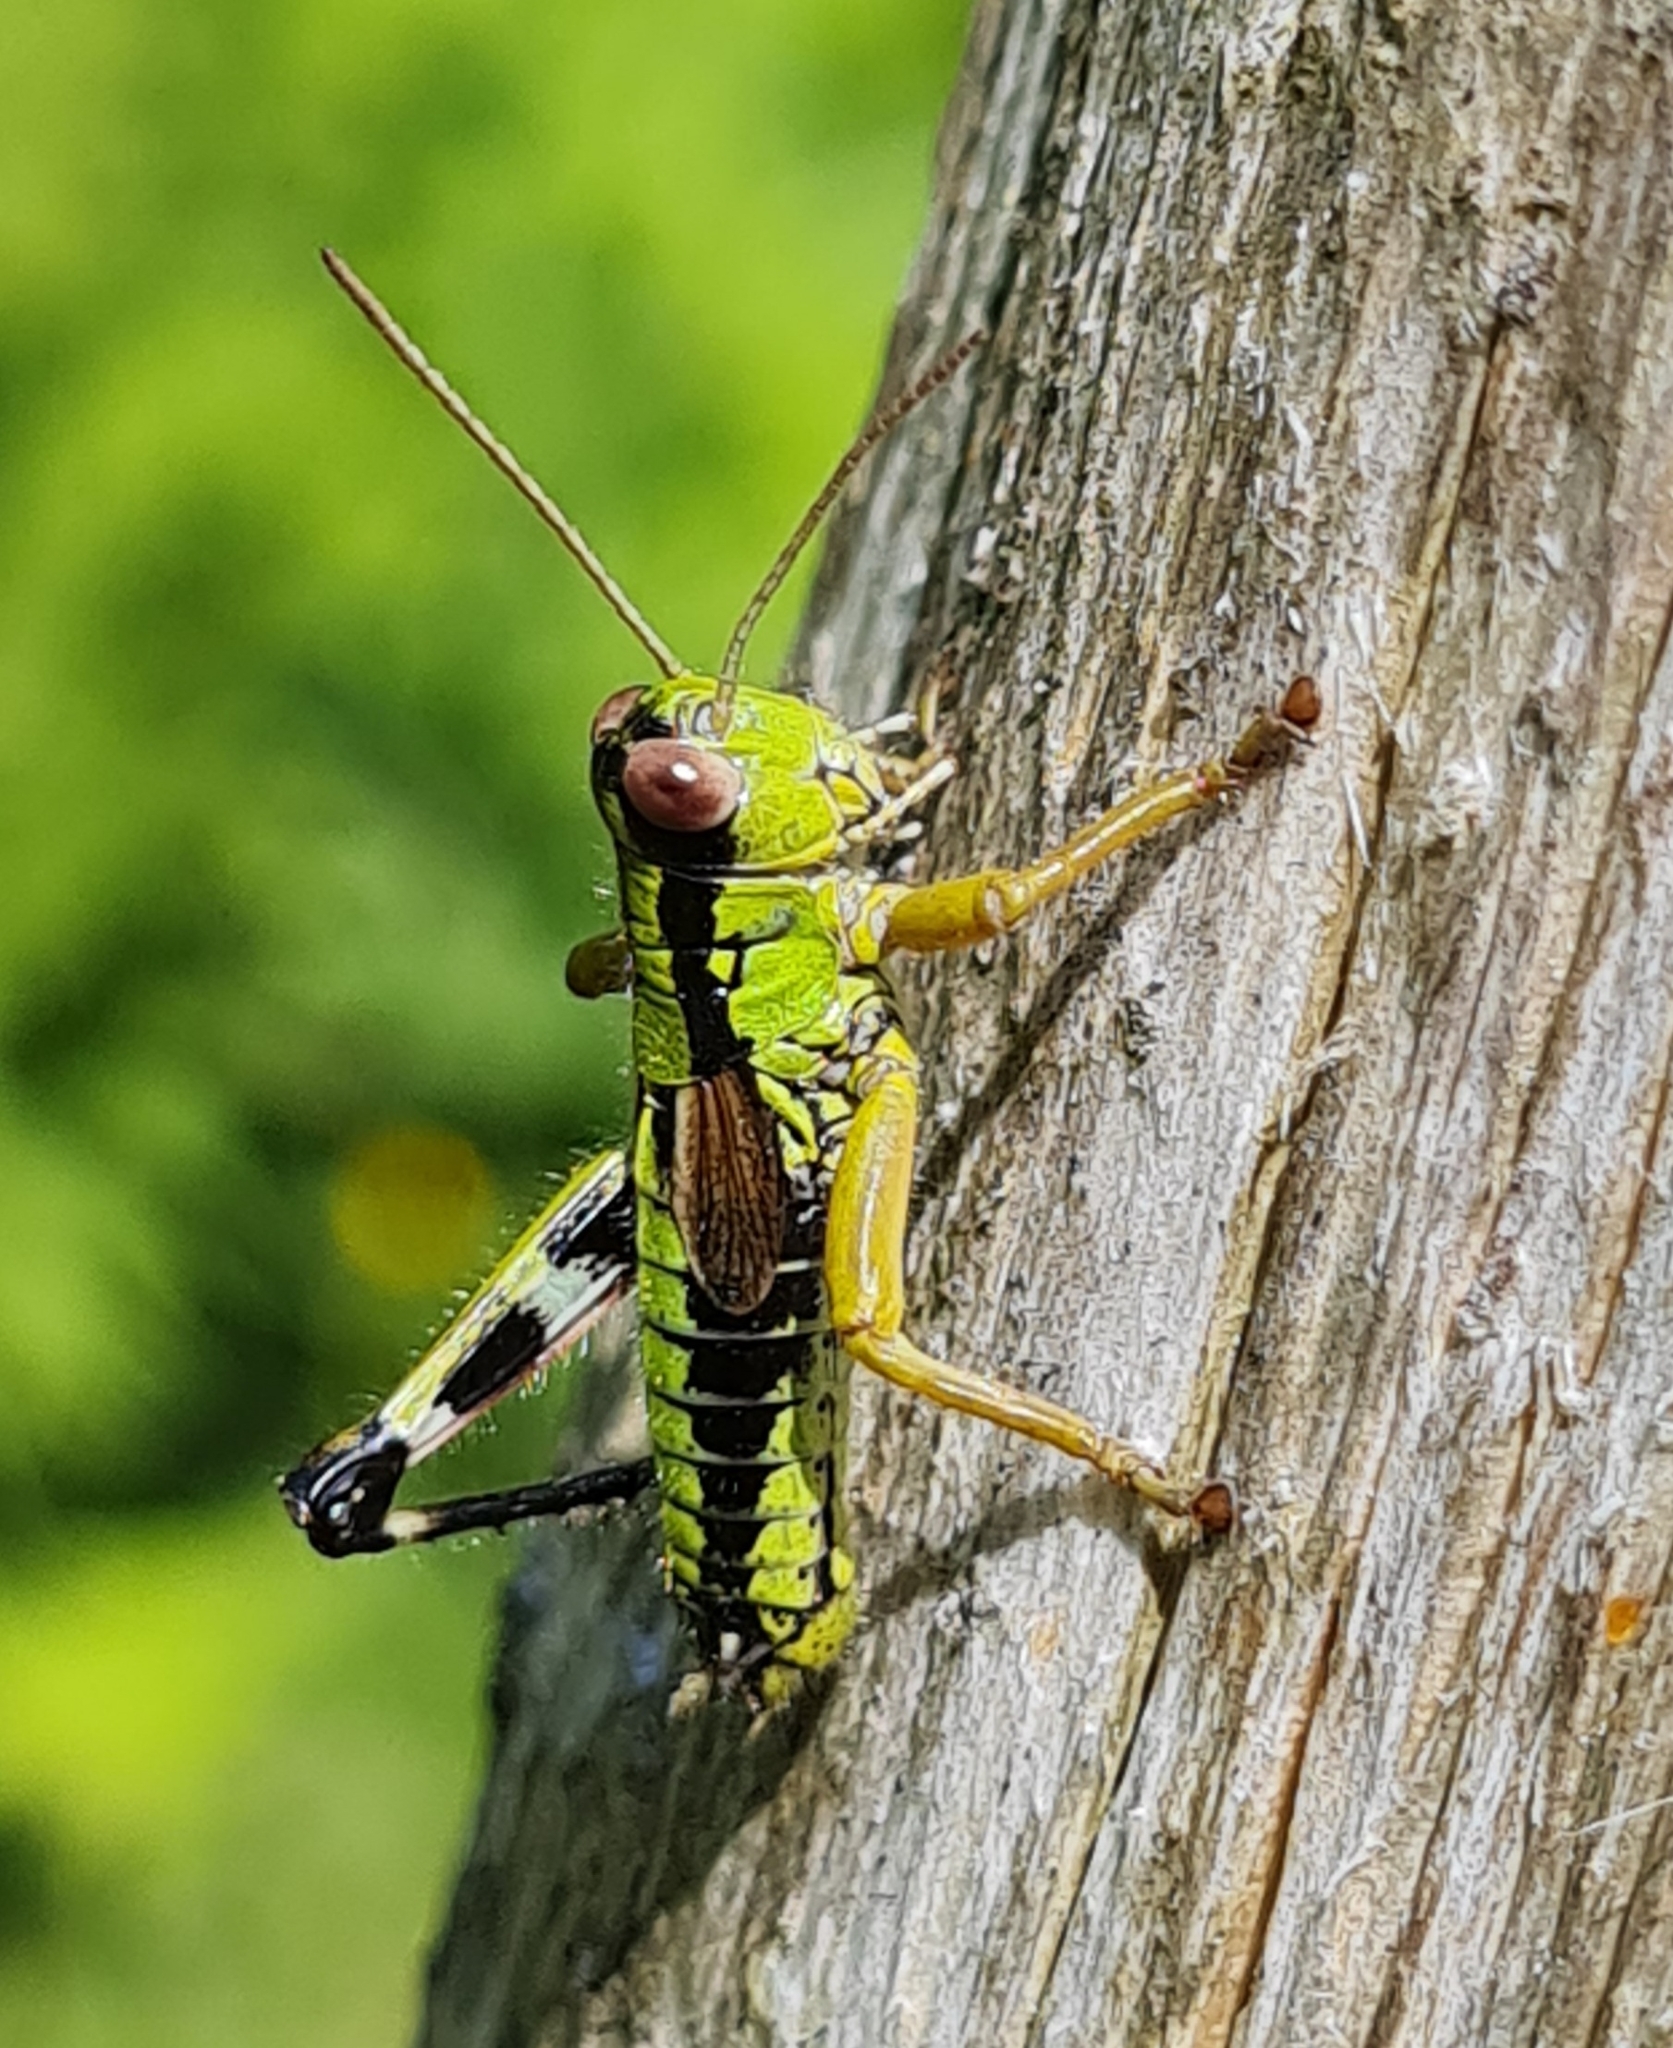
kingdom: Animalia
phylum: Arthropoda
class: Insecta
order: Orthoptera
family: Acrididae
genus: Miramella
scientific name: Miramella alpina
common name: Green mountain grasshopper
